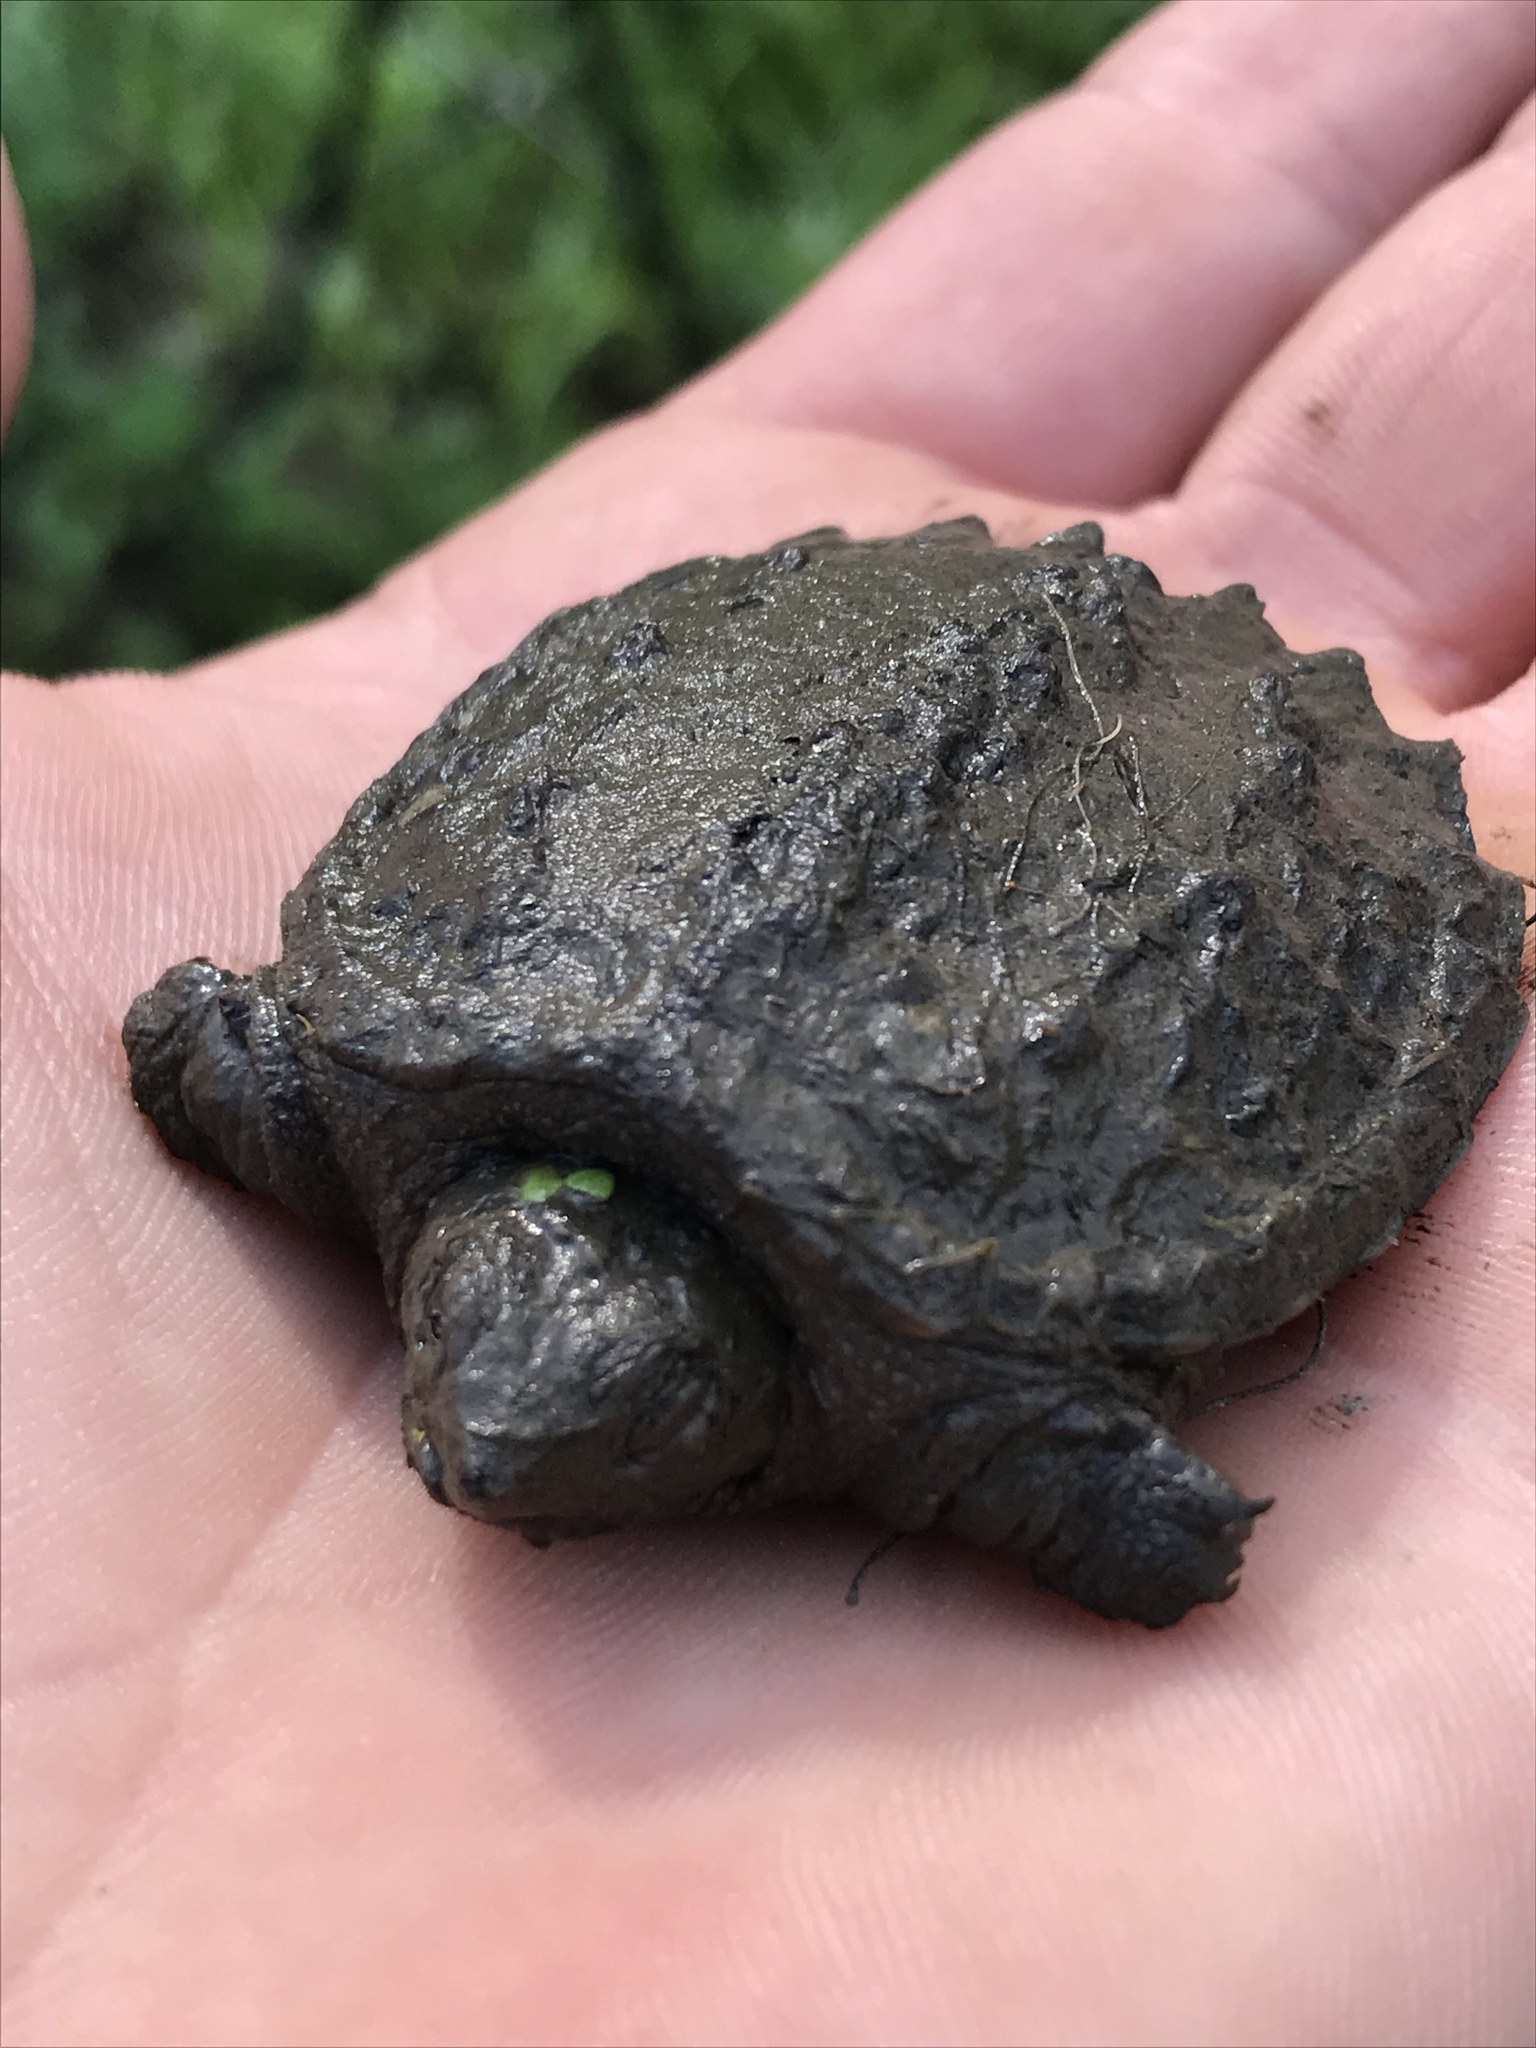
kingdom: Animalia
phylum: Chordata
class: Testudines
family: Chelydridae
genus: Chelydra
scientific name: Chelydra serpentina
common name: Common snapping turtle
